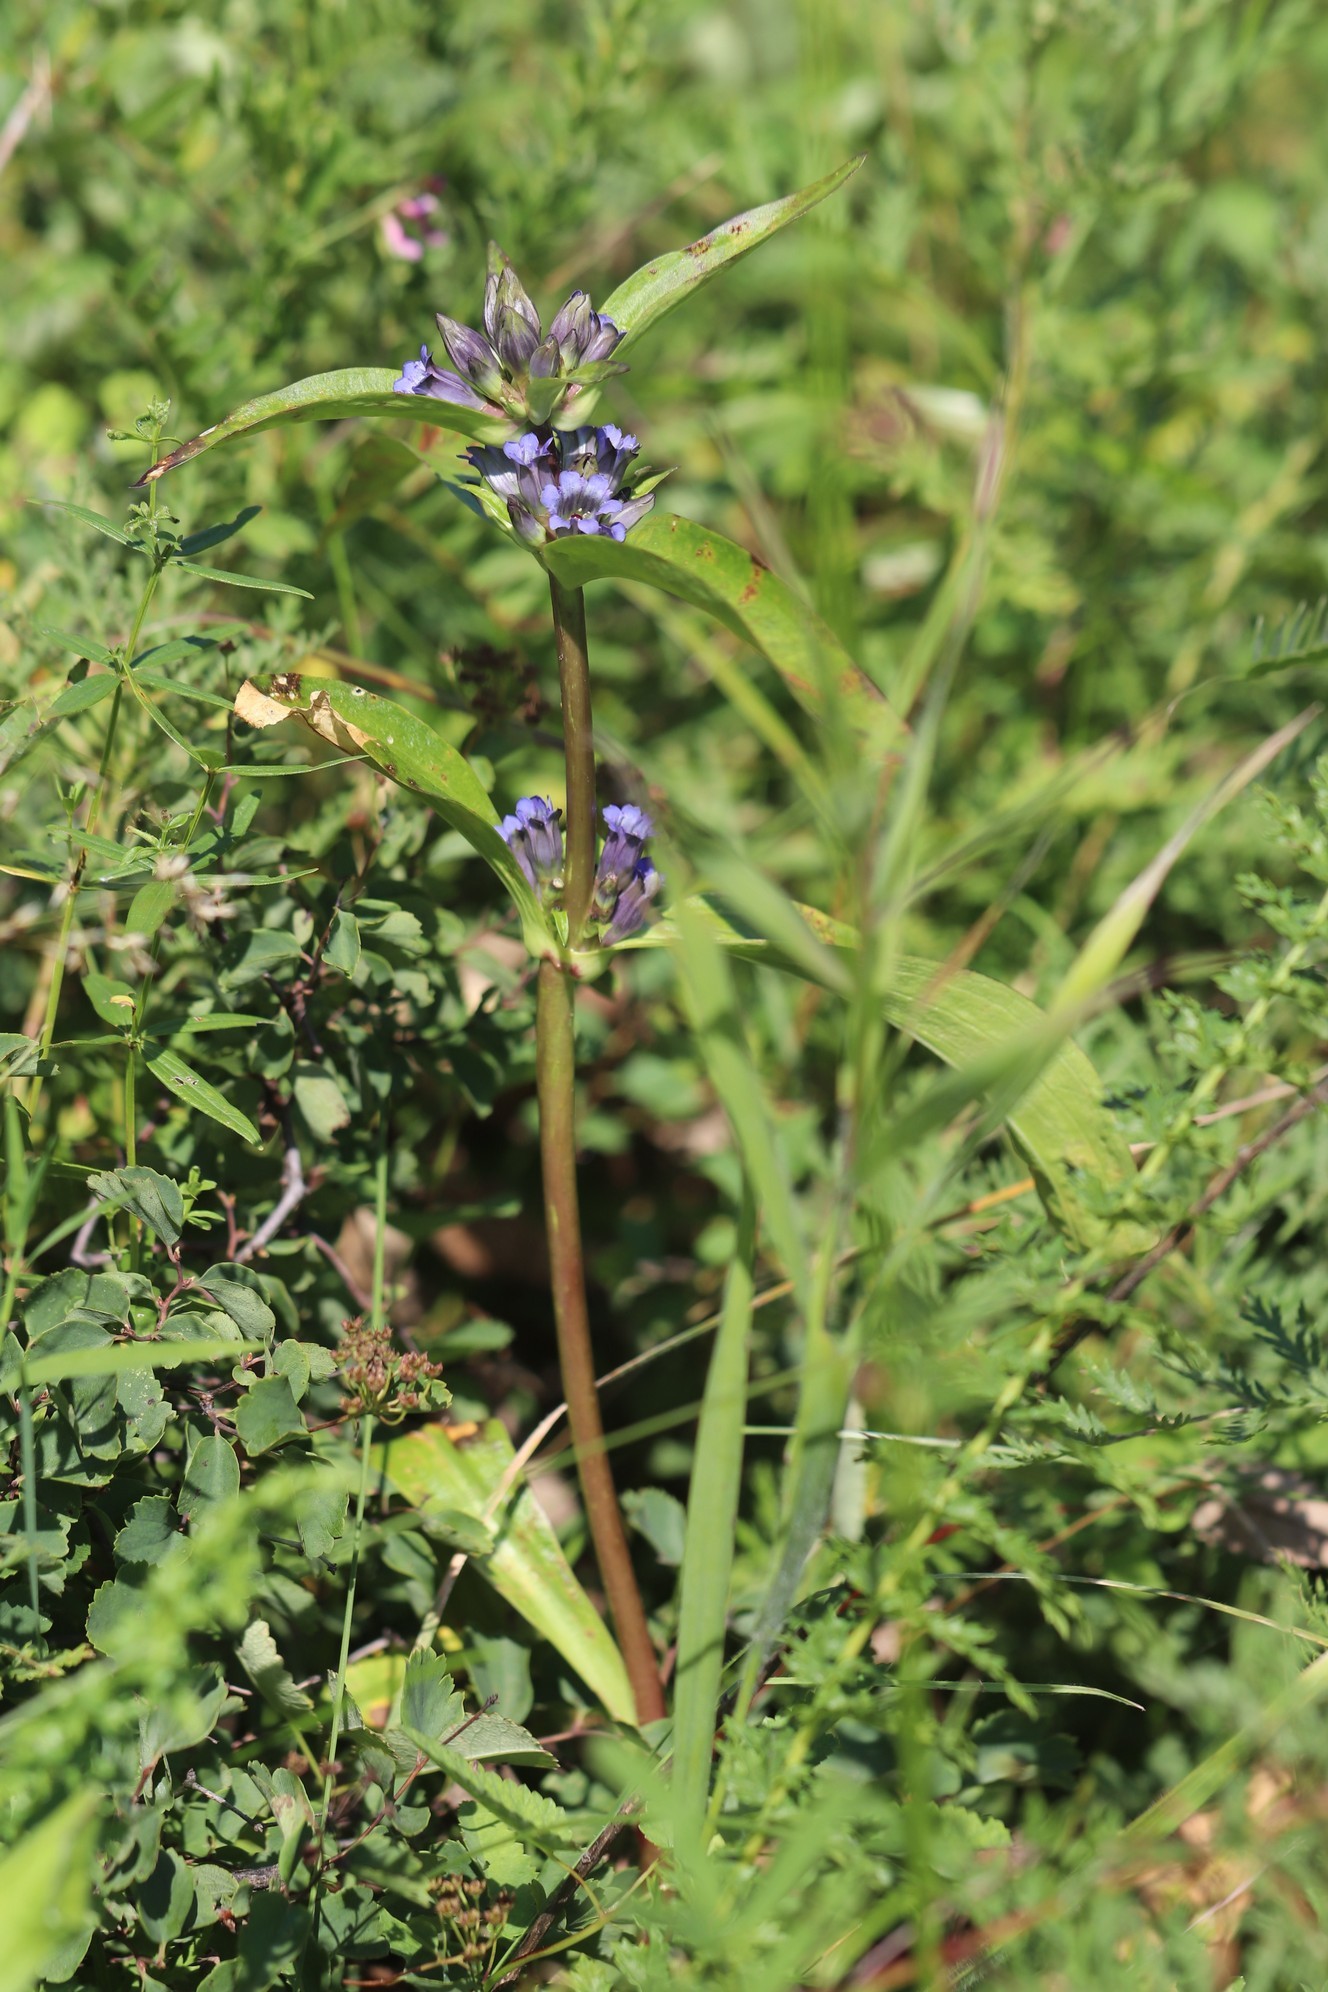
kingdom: Plantae
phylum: Tracheophyta
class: Magnoliopsida
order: Gentianales
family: Gentianaceae
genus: Gentiana
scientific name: Gentiana macrophylla
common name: Large-leaf gentian
